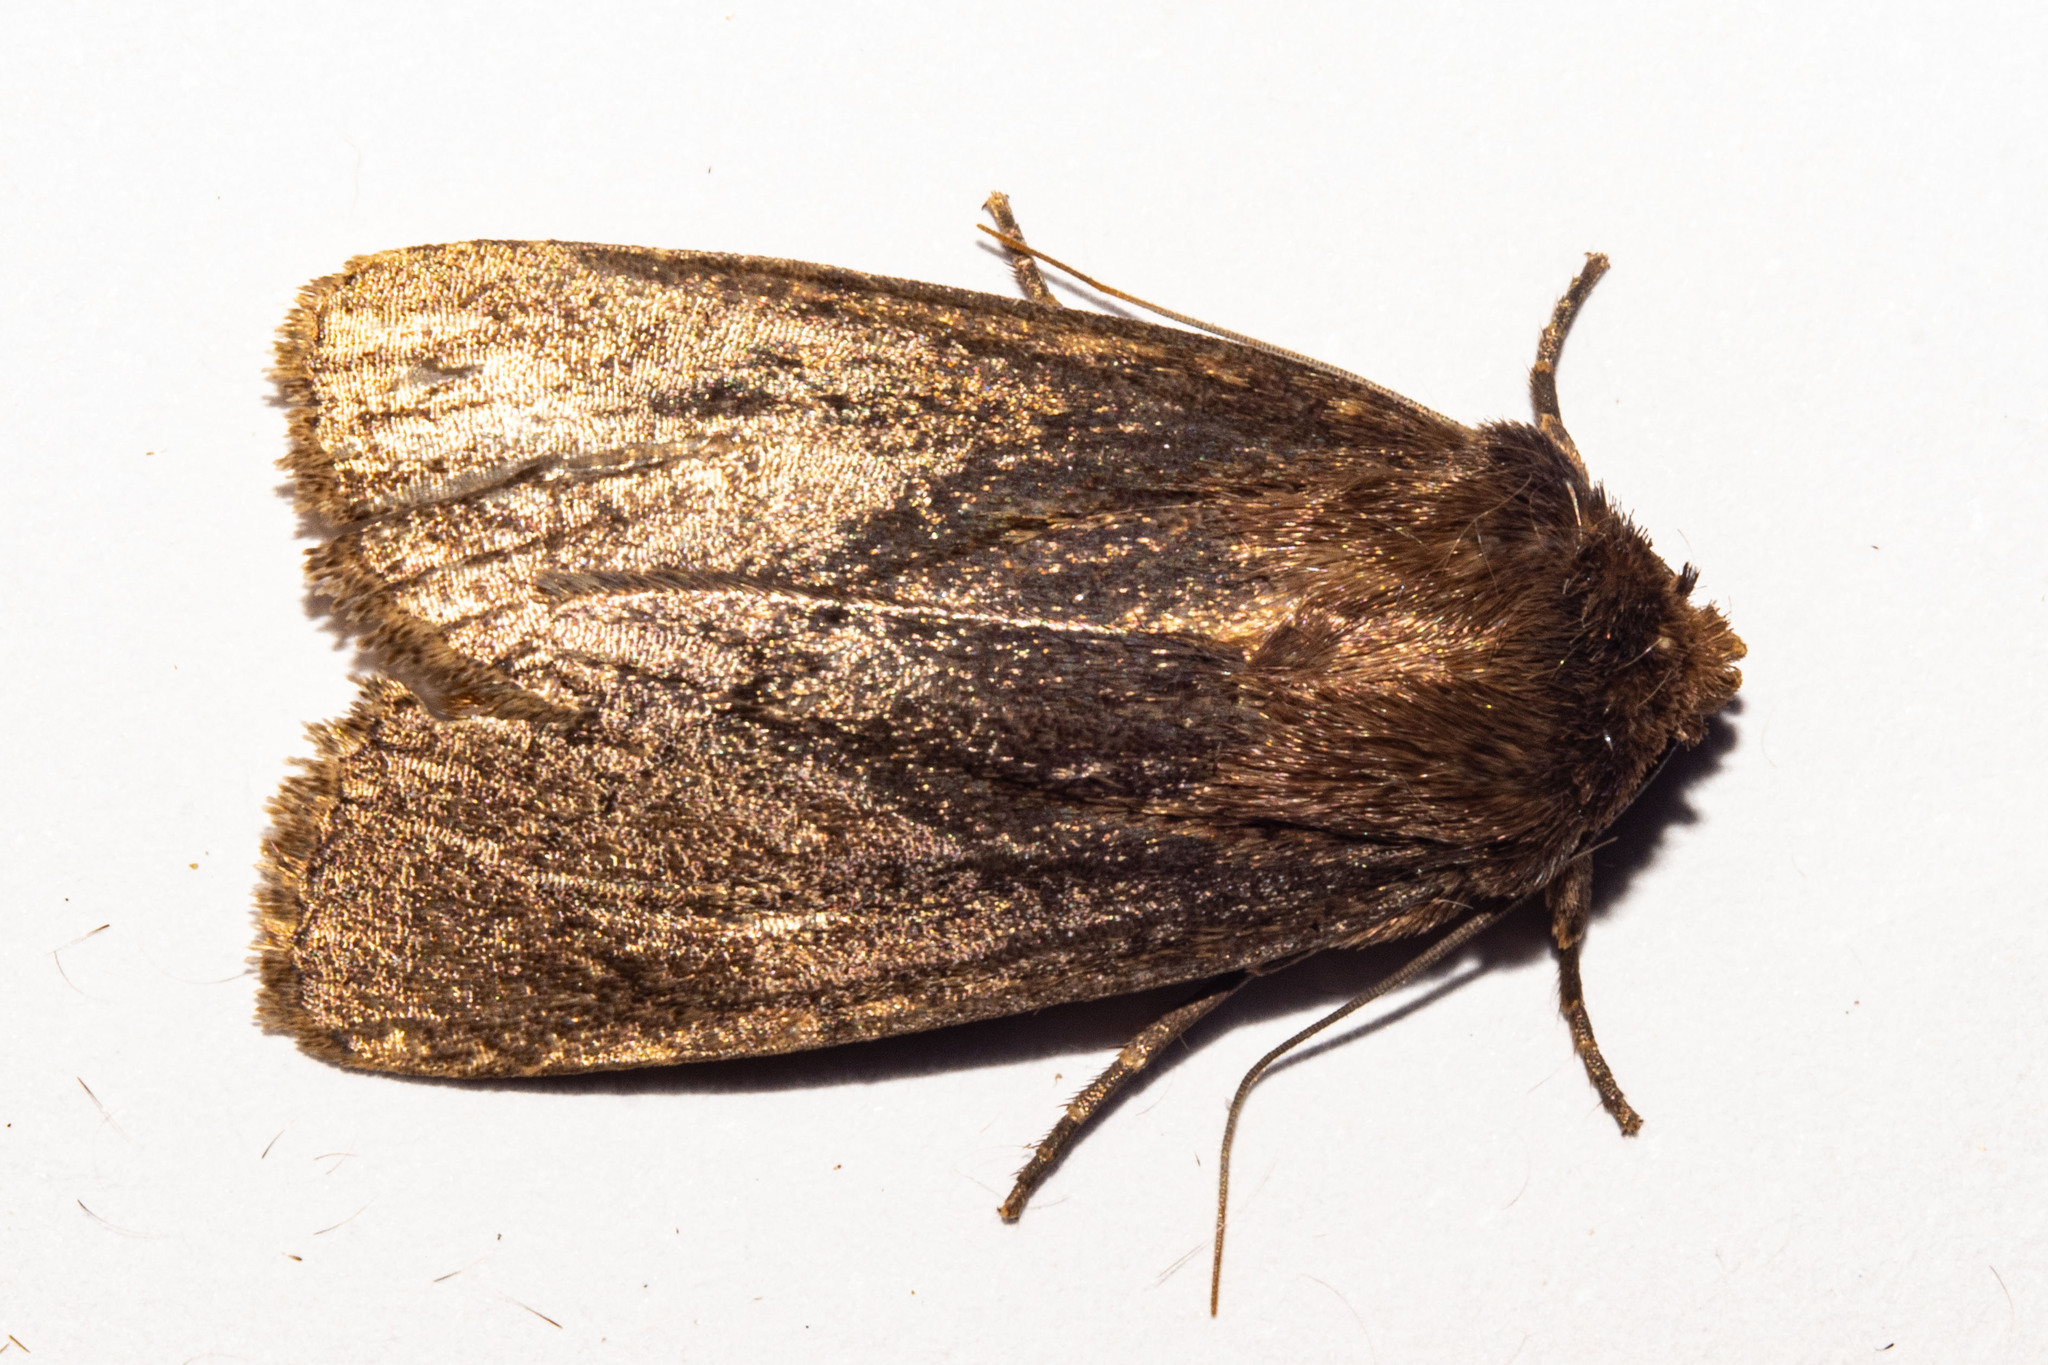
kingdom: Animalia
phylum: Arthropoda
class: Insecta
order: Lepidoptera
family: Noctuidae
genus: Bityla
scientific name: Bityla defigurata
